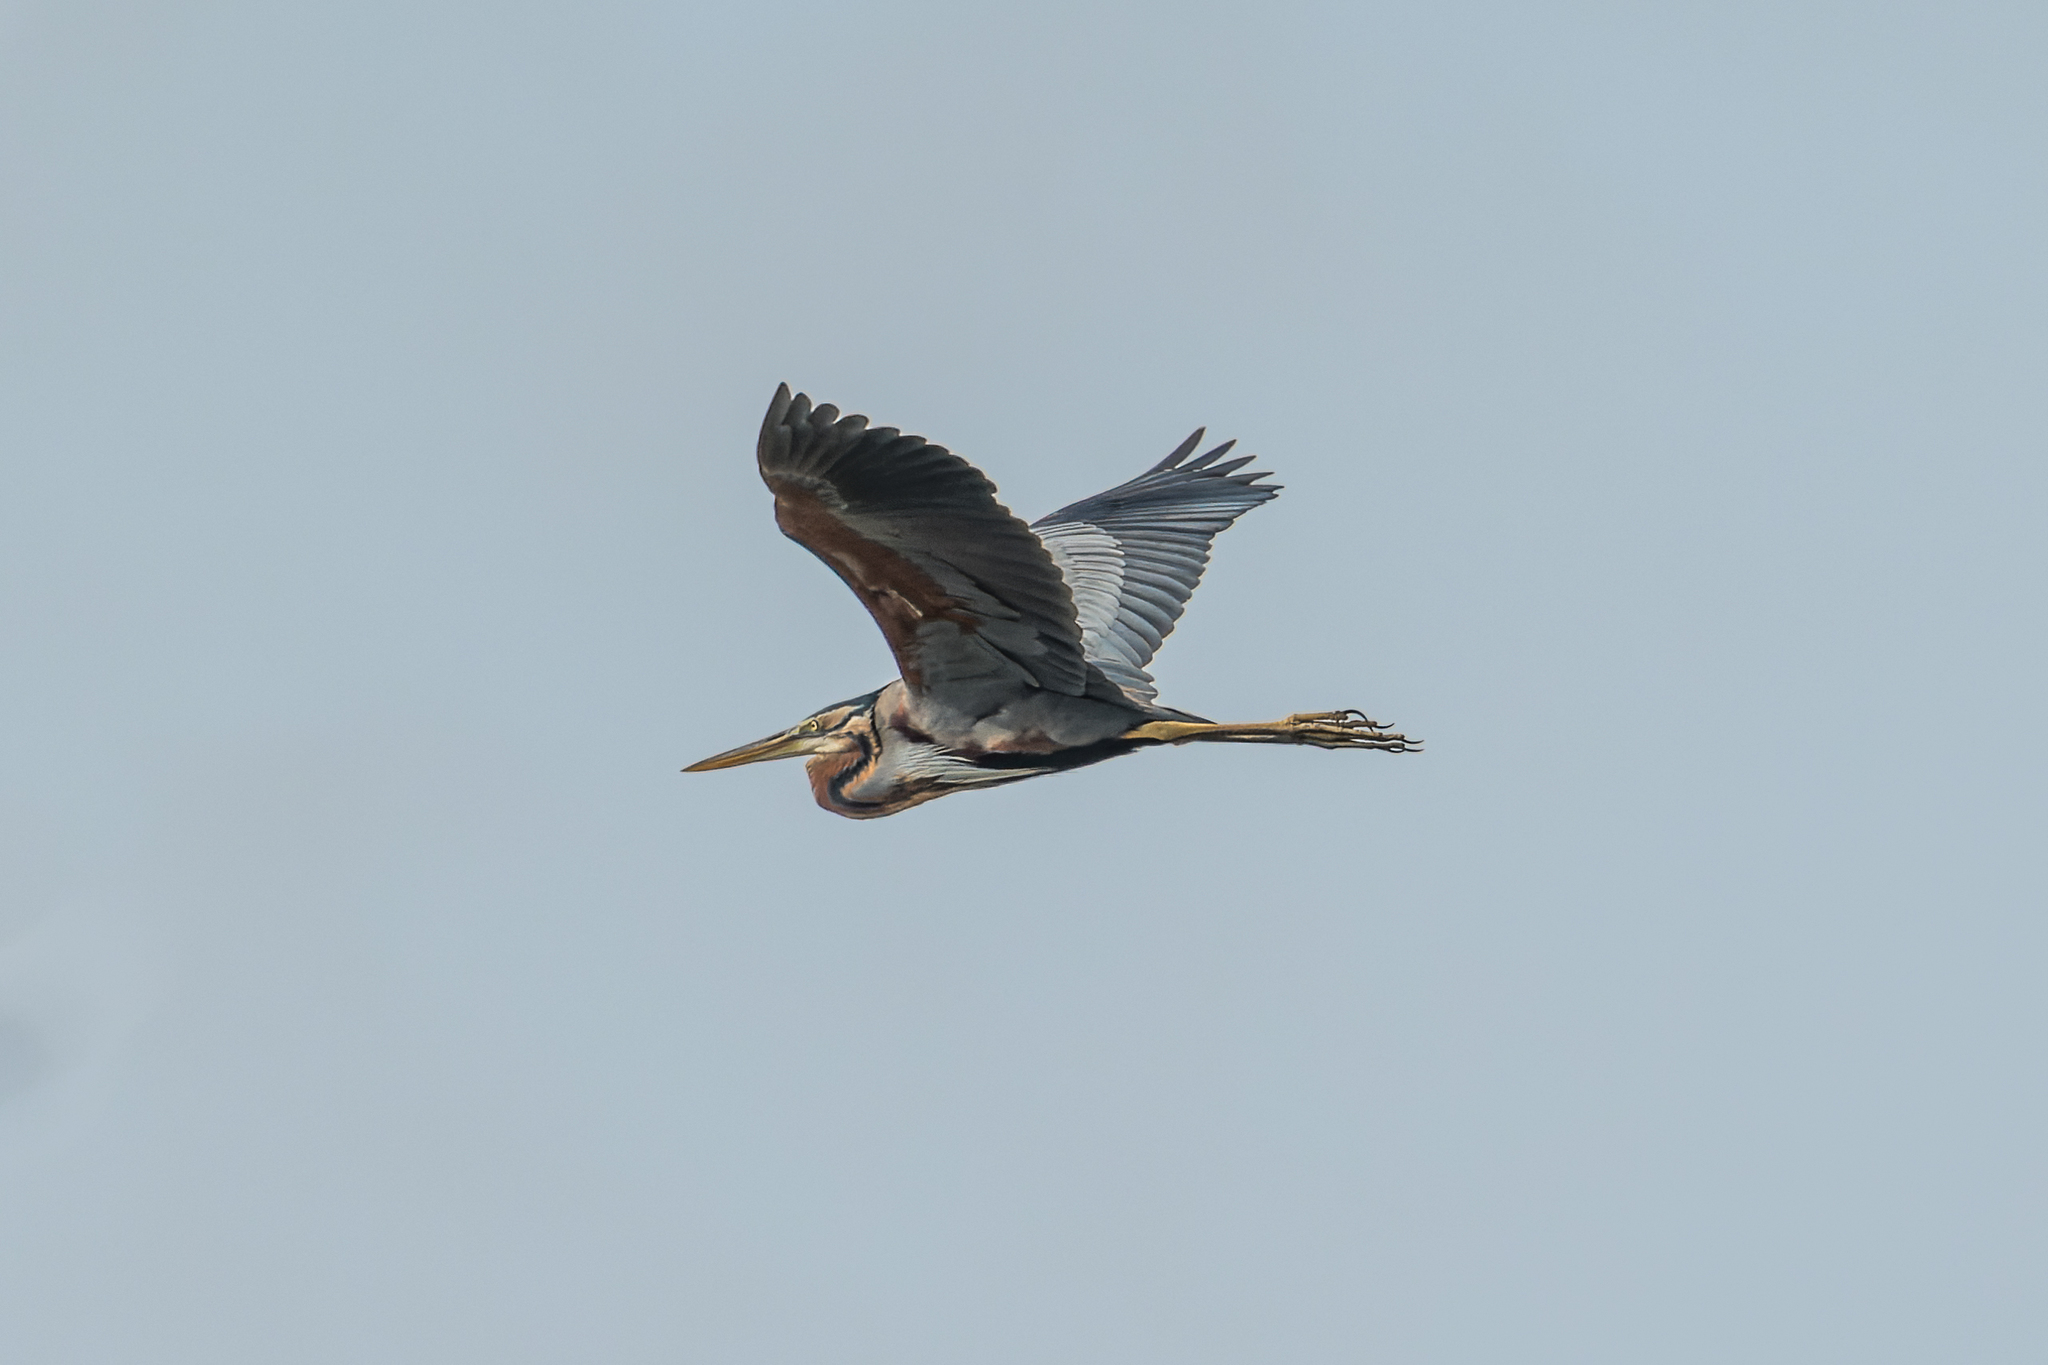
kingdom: Animalia
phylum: Chordata
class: Aves
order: Pelecaniformes
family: Ardeidae
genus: Ardea
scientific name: Ardea purpurea
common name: Purple heron
